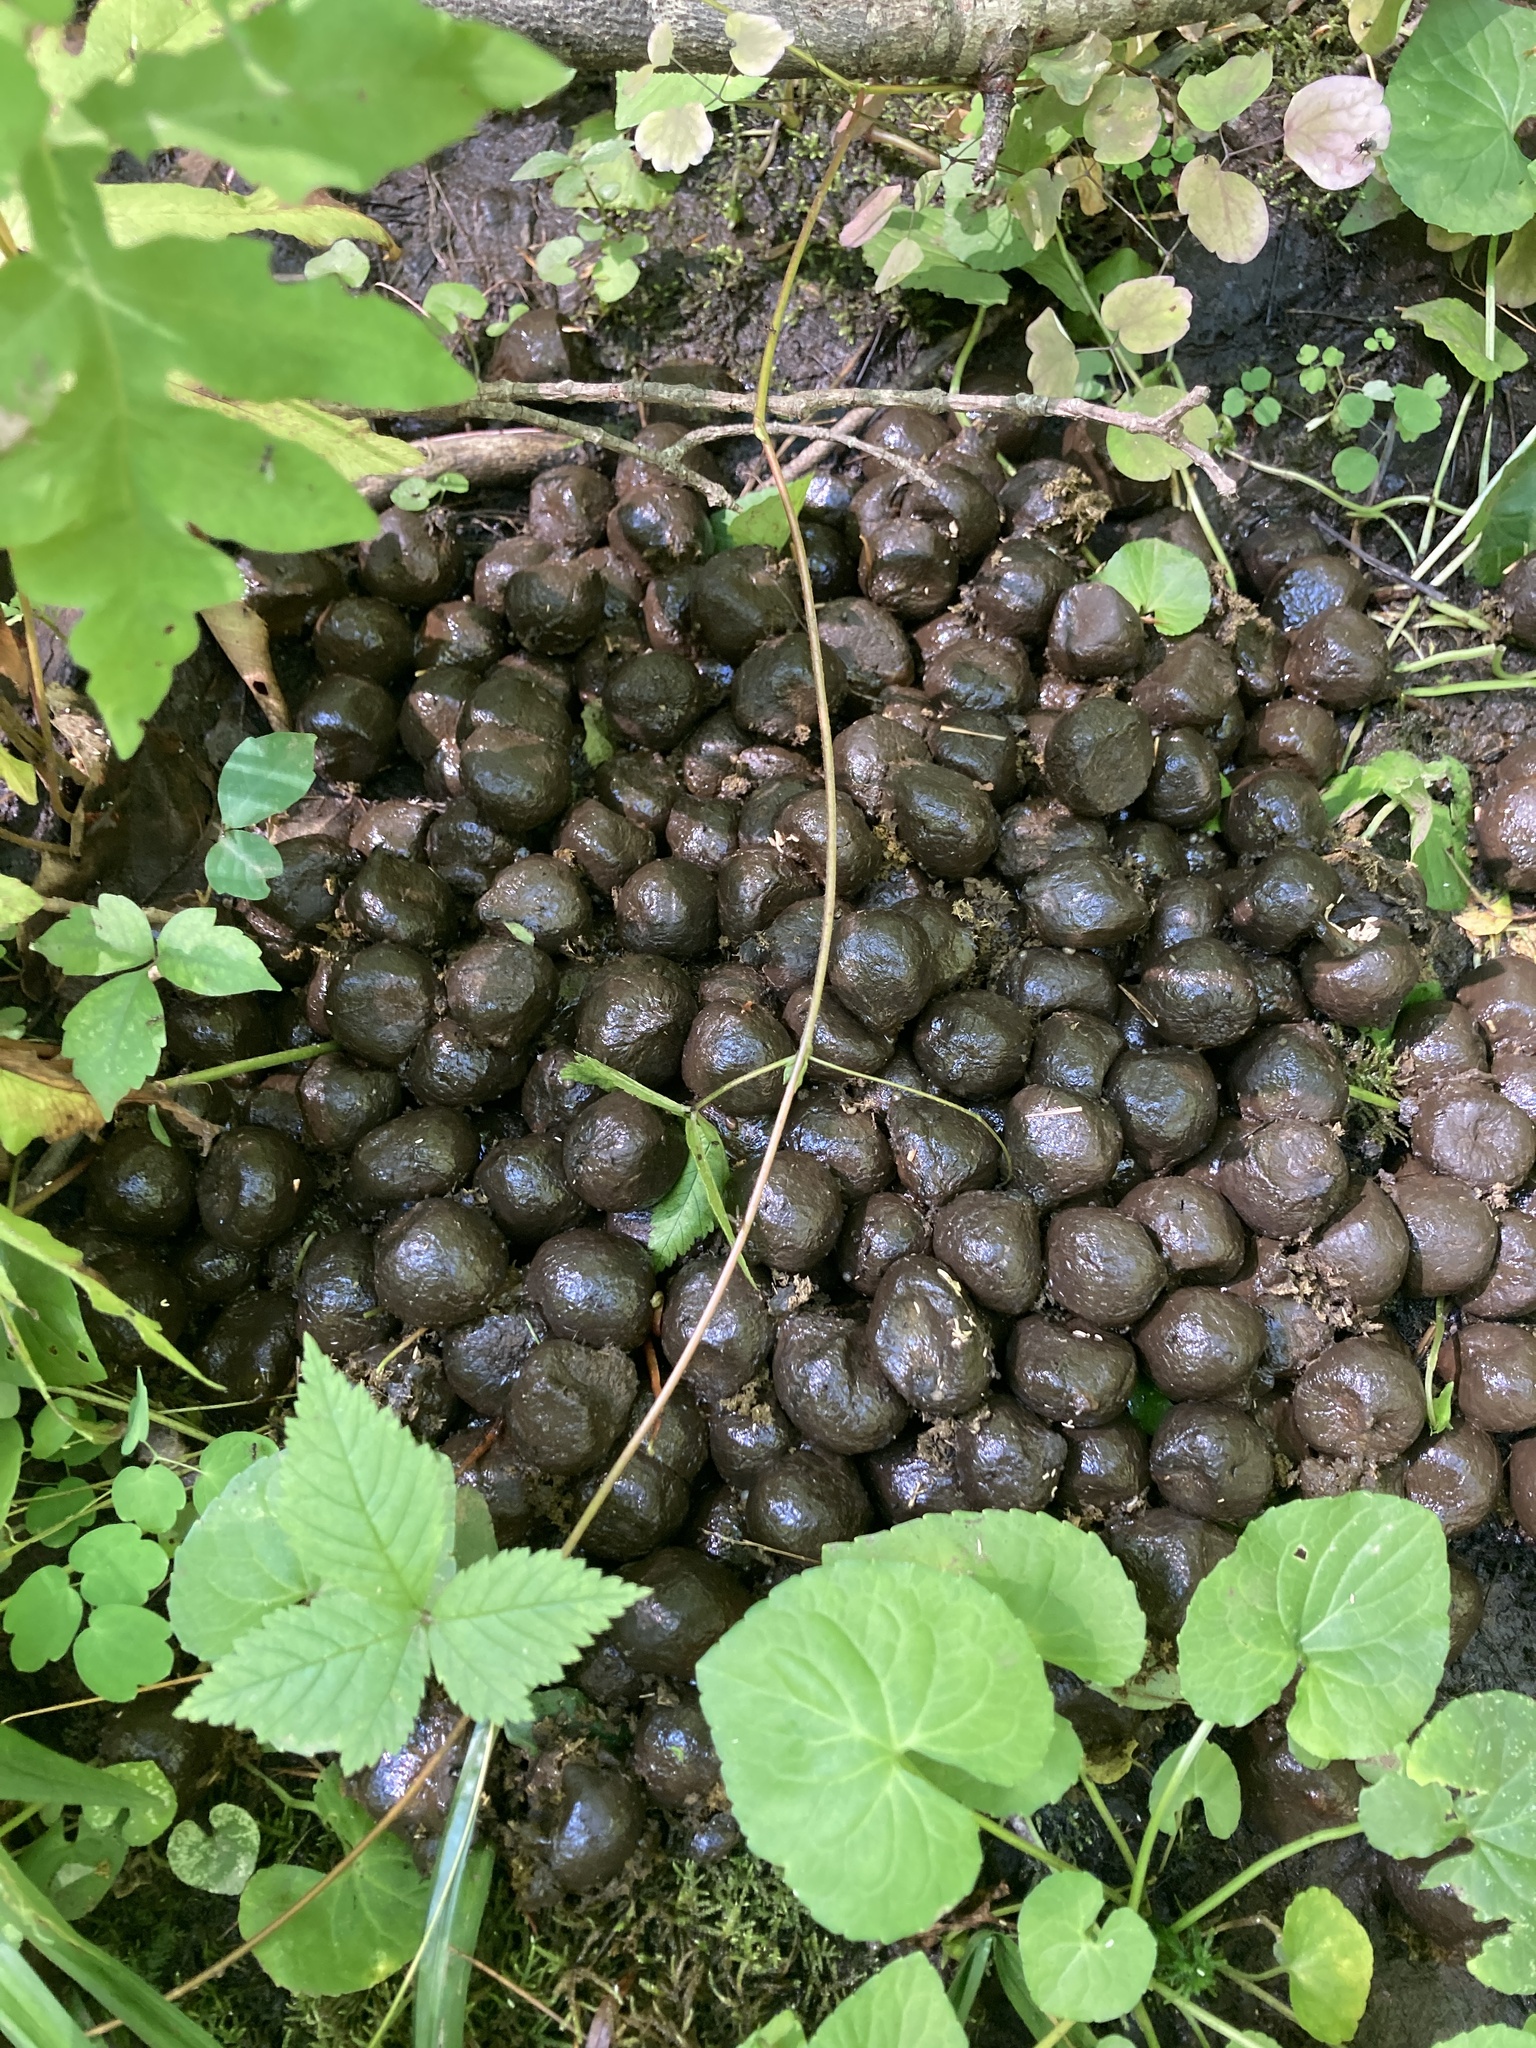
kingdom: Animalia
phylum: Chordata
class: Mammalia
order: Artiodactyla
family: Cervidae
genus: Alces
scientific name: Alces alces
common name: Moose
